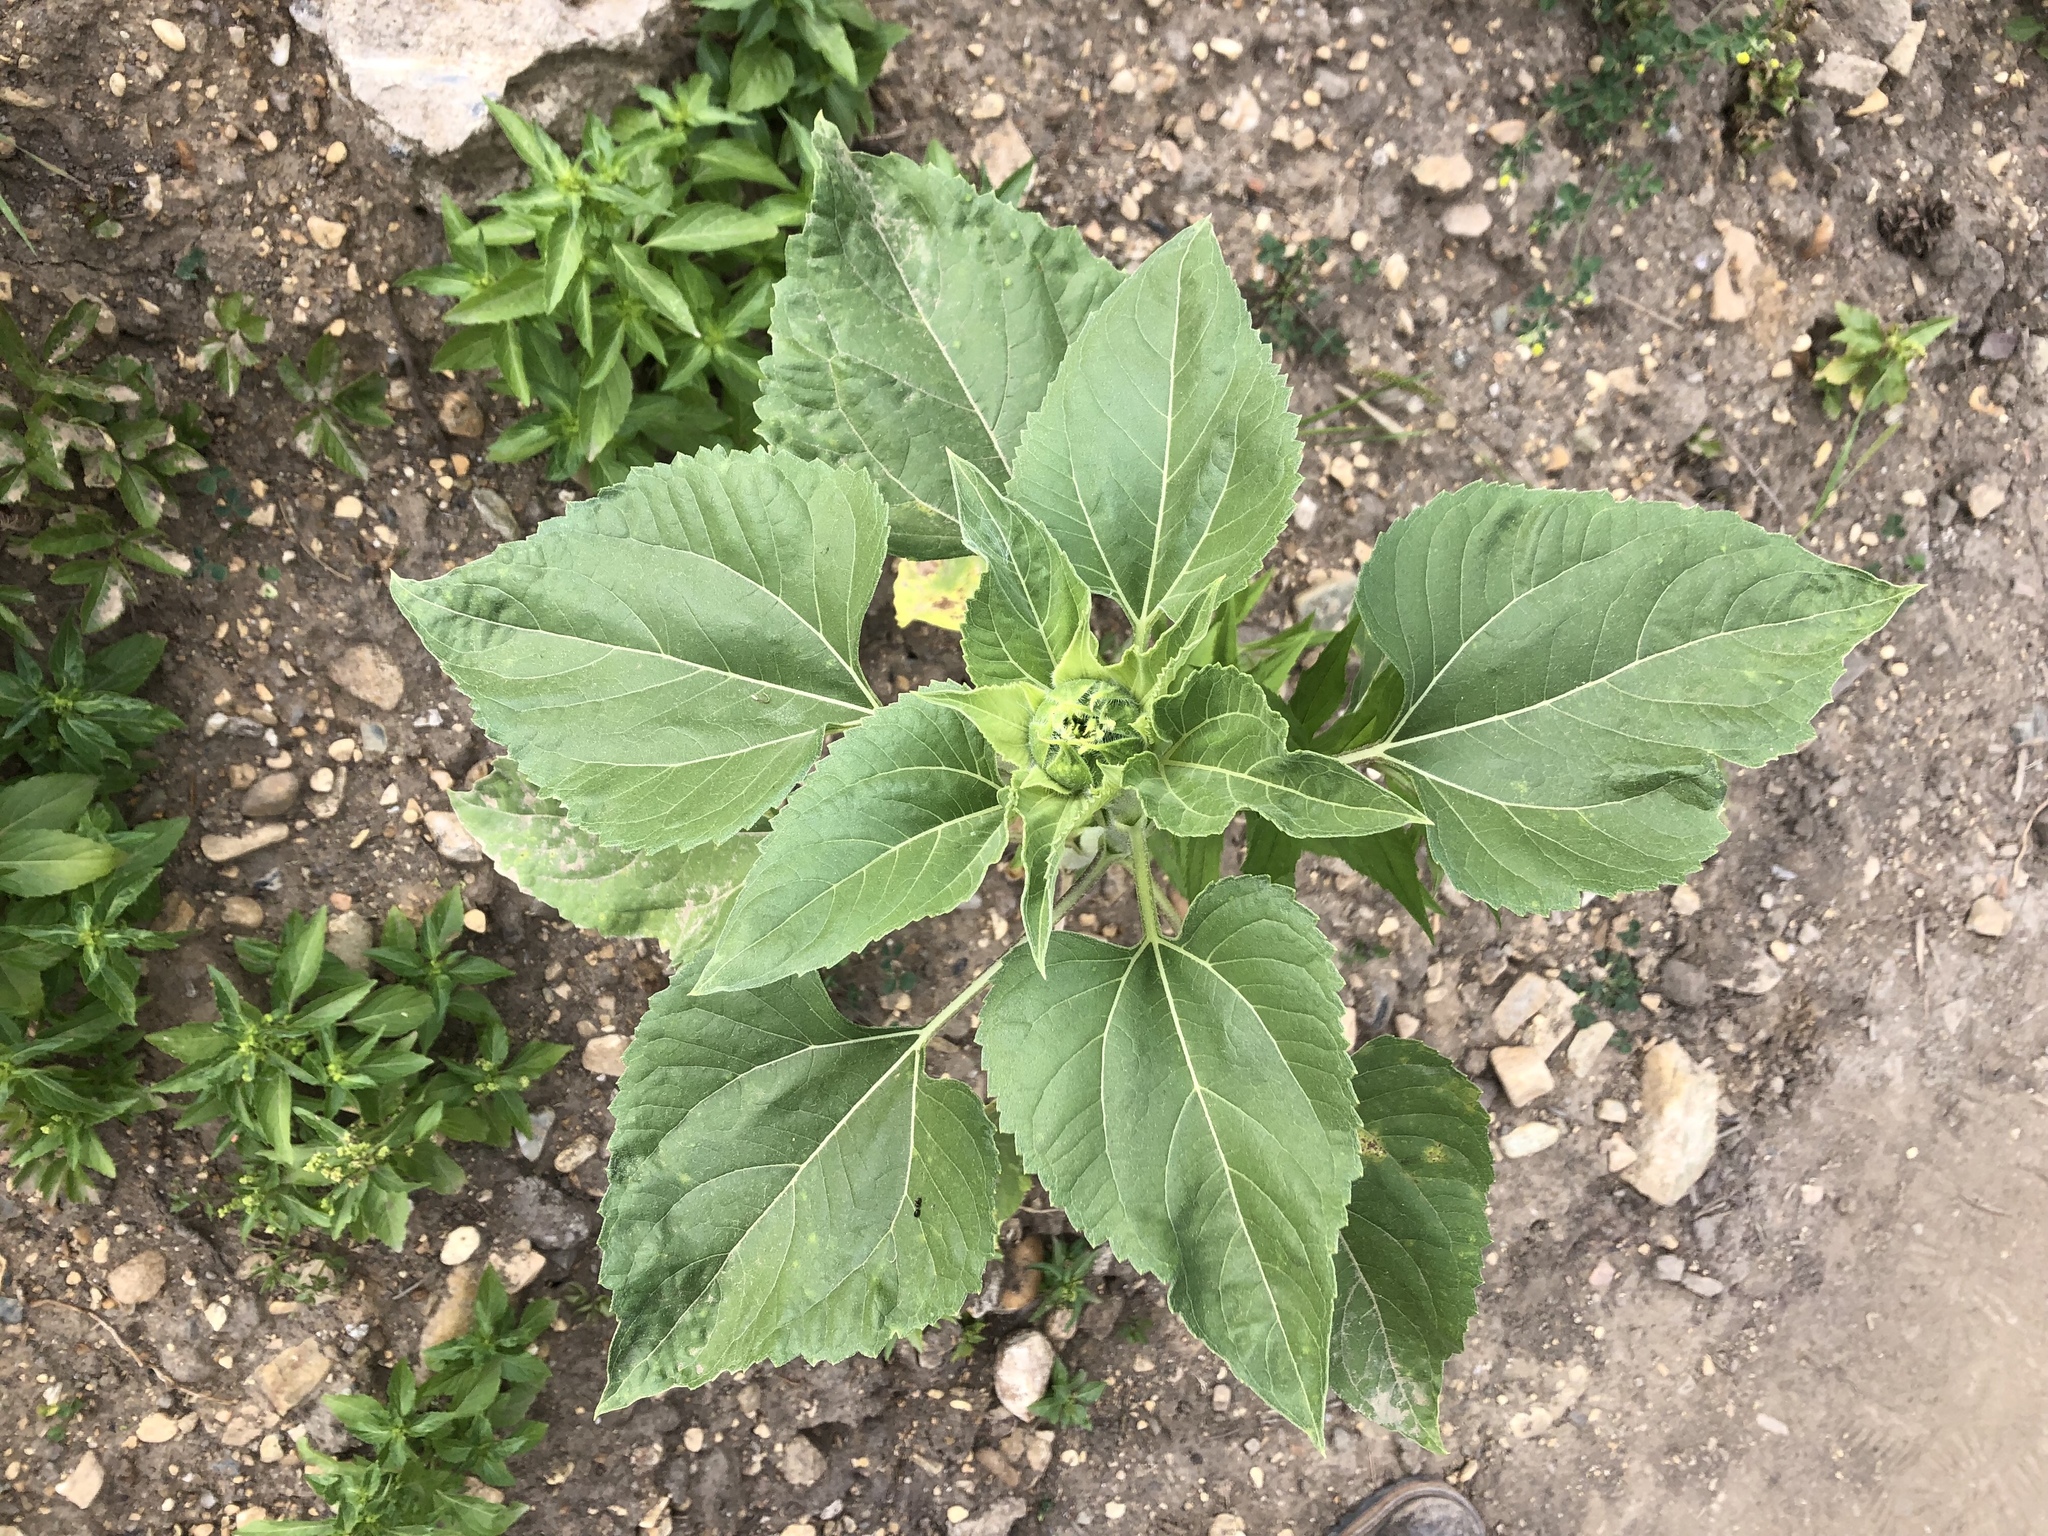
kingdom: Plantae
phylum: Tracheophyta
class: Magnoliopsida
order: Asterales
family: Asteraceae
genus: Helianthus
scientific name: Helianthus annuus
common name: Sunflower
